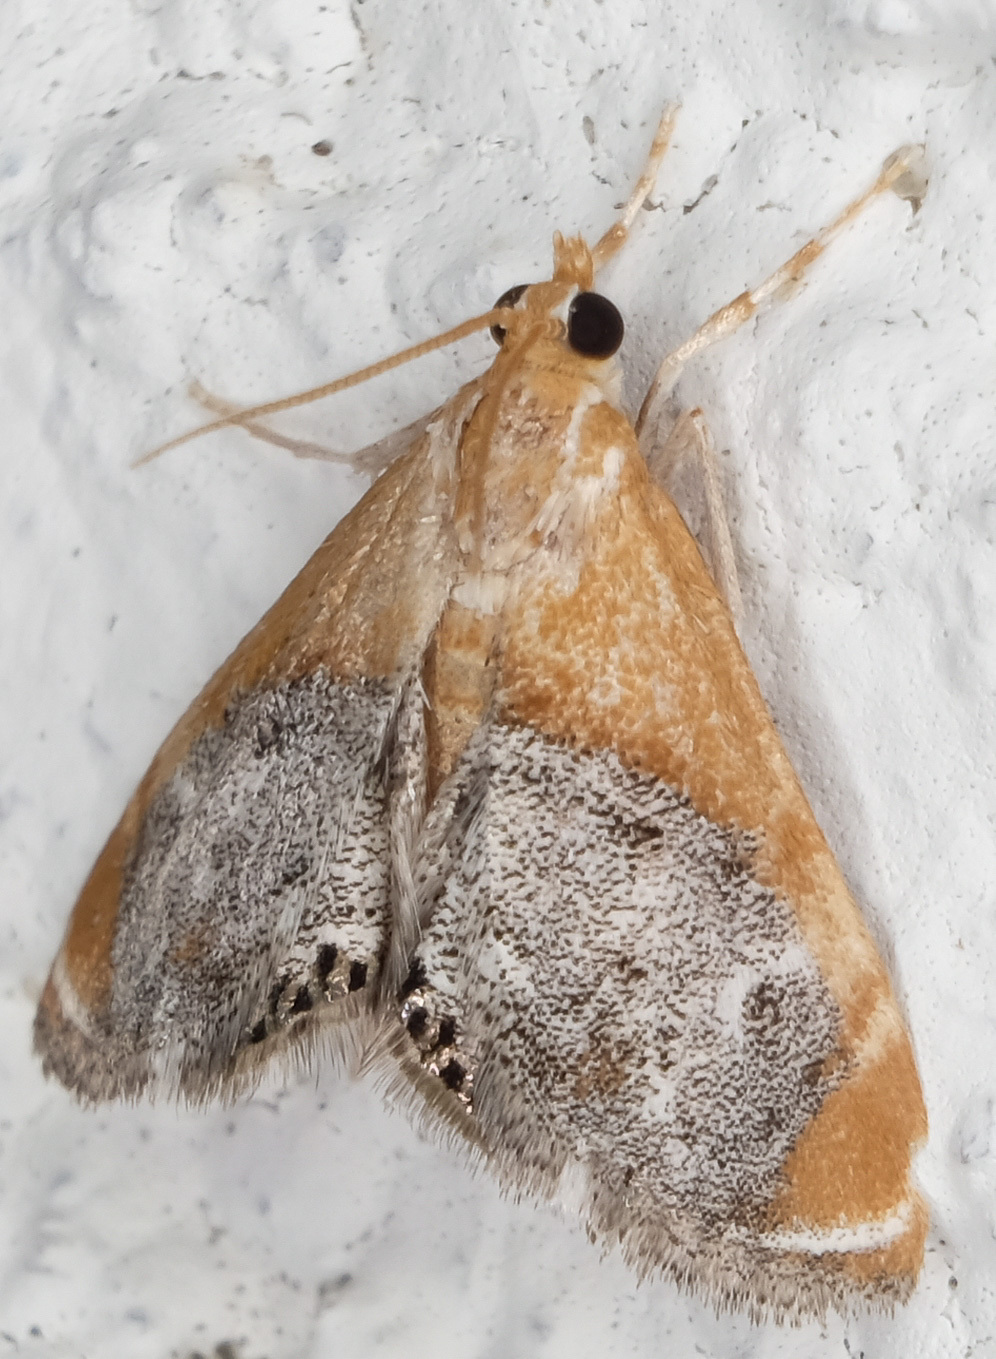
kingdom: Animalia
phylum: Arthropoda
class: Insecta
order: Lepidoptera
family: Crambidae
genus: Chalcoela
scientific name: Chalcoela iphitalis
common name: Sooty-winged chalcoela moth
